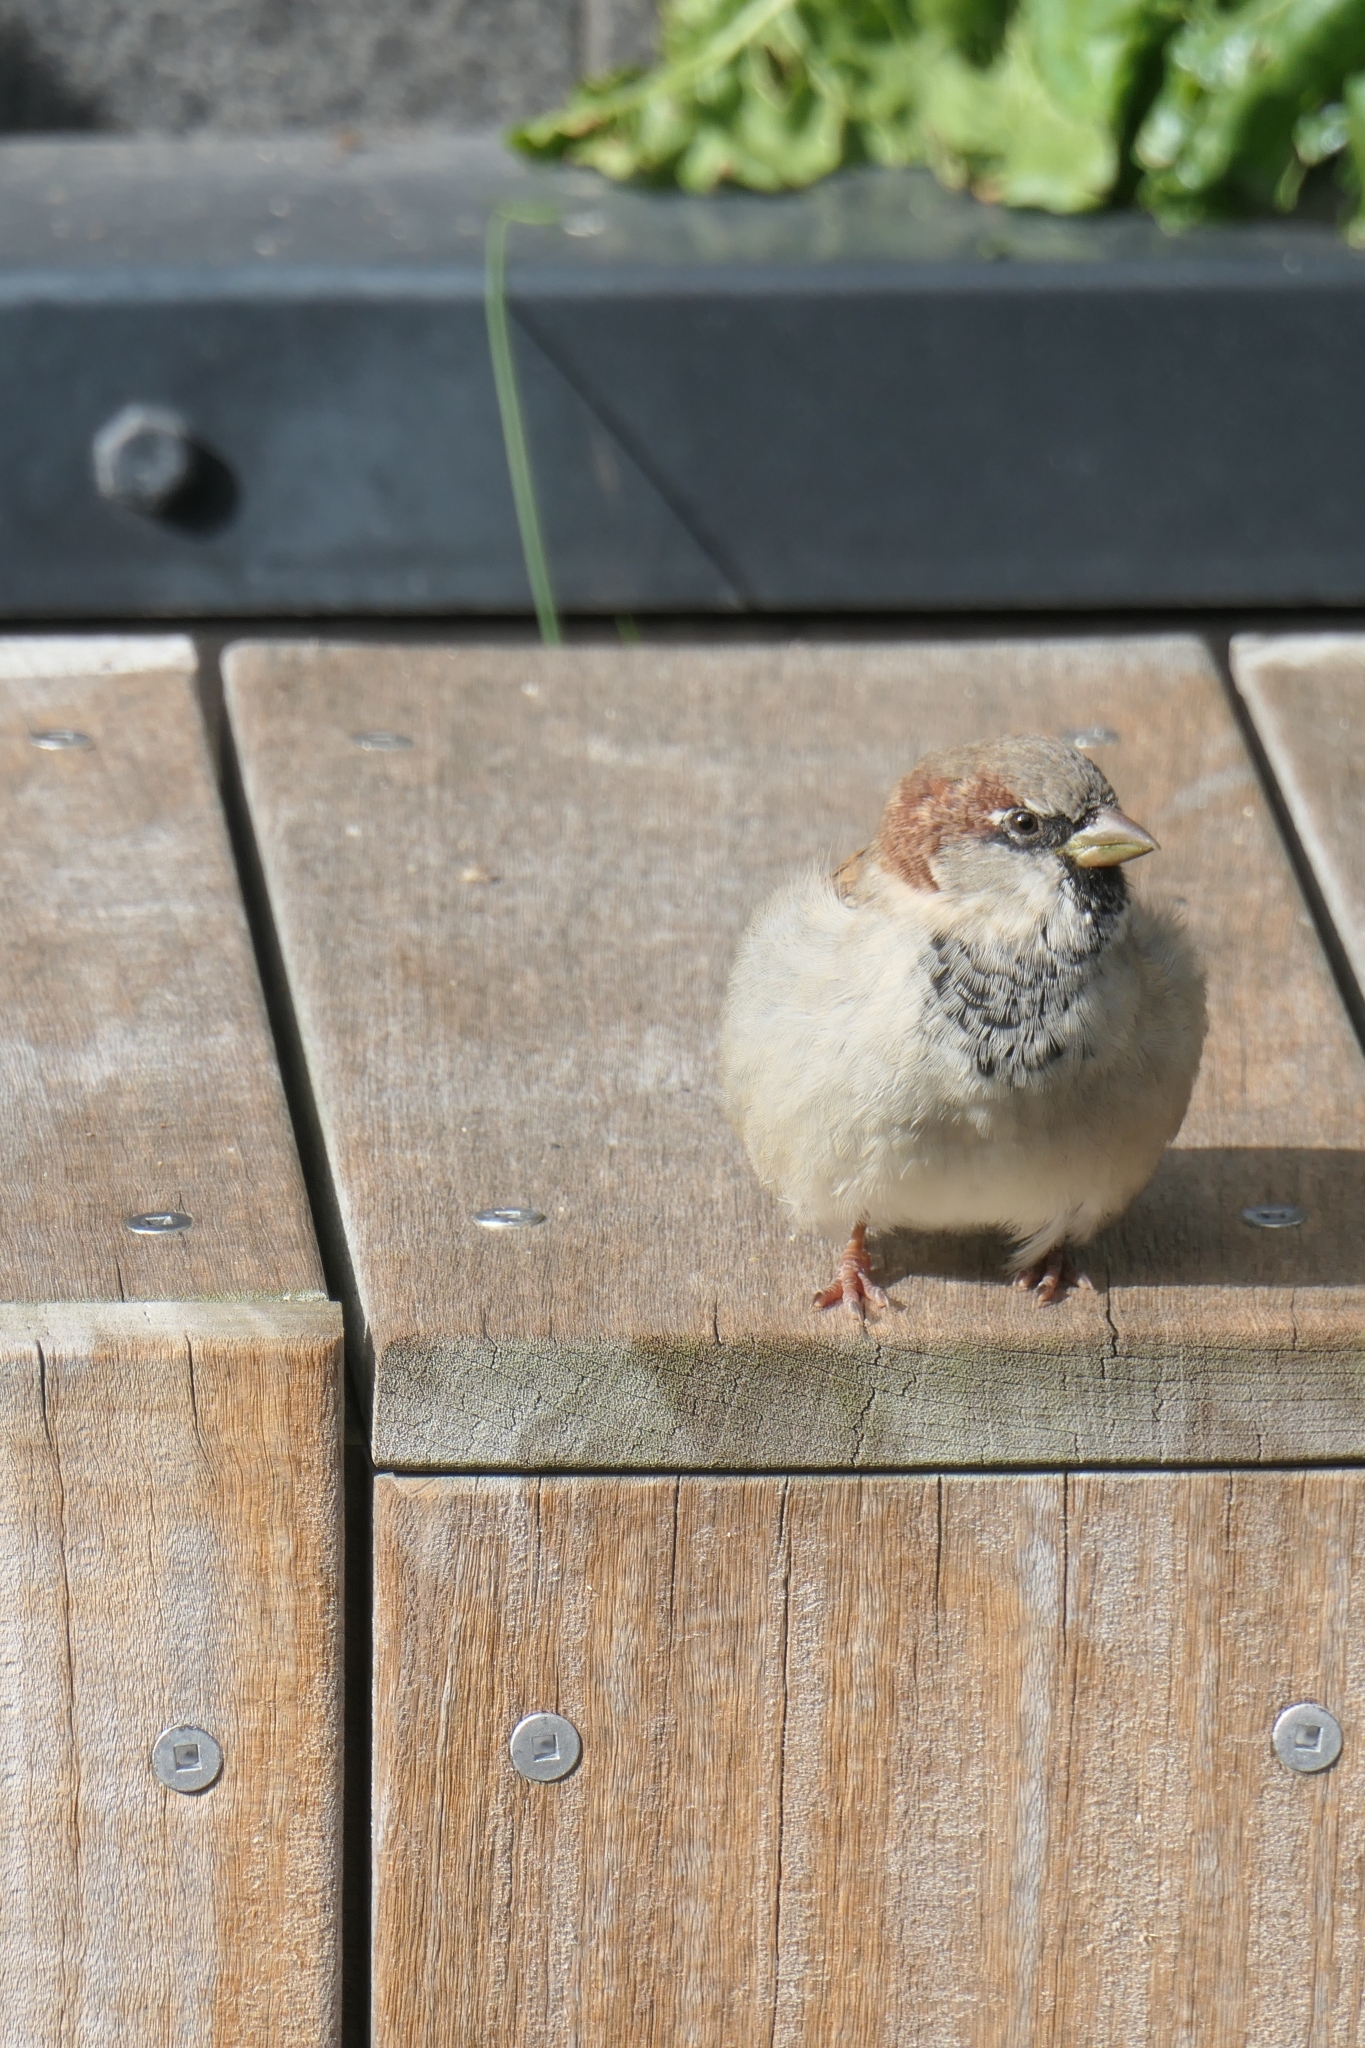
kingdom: Animalia
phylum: Chordata
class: Aves
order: Passeriformes
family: Passeridae
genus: Passer
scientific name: Passer domesticus
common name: House sparrow
